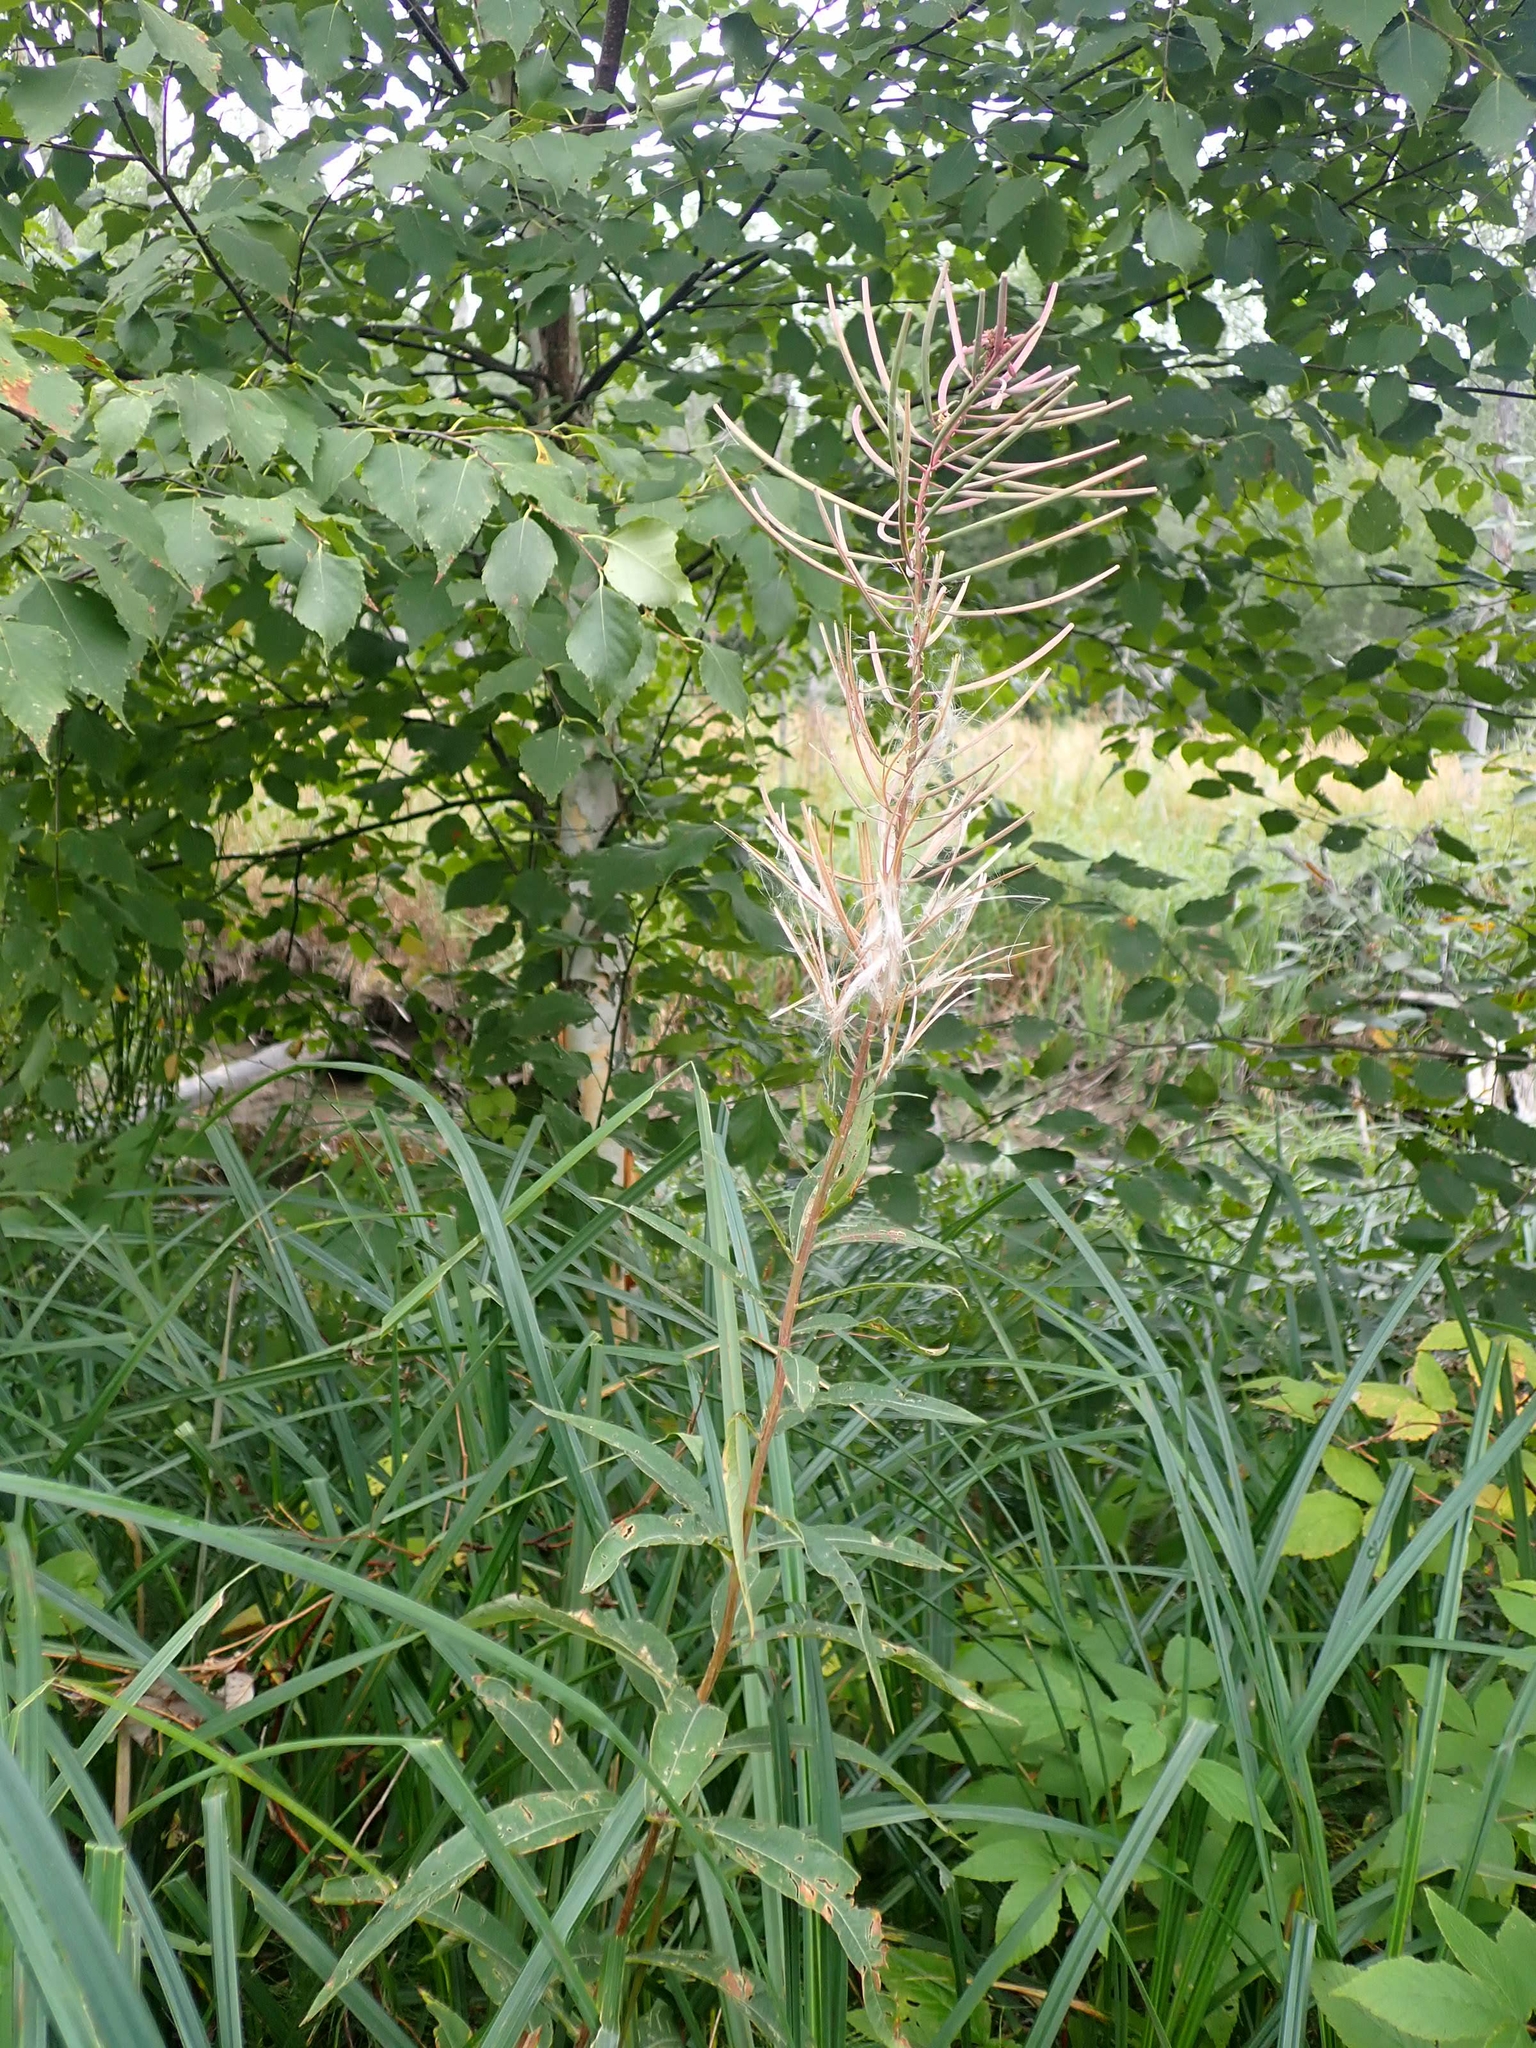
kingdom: Plantae
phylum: Tracheophyta
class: Magnoliopsida
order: Myrtales
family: Onagraceae
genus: Chamaenerion
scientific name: Chamaenerion angustifolium
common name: Fireweed
